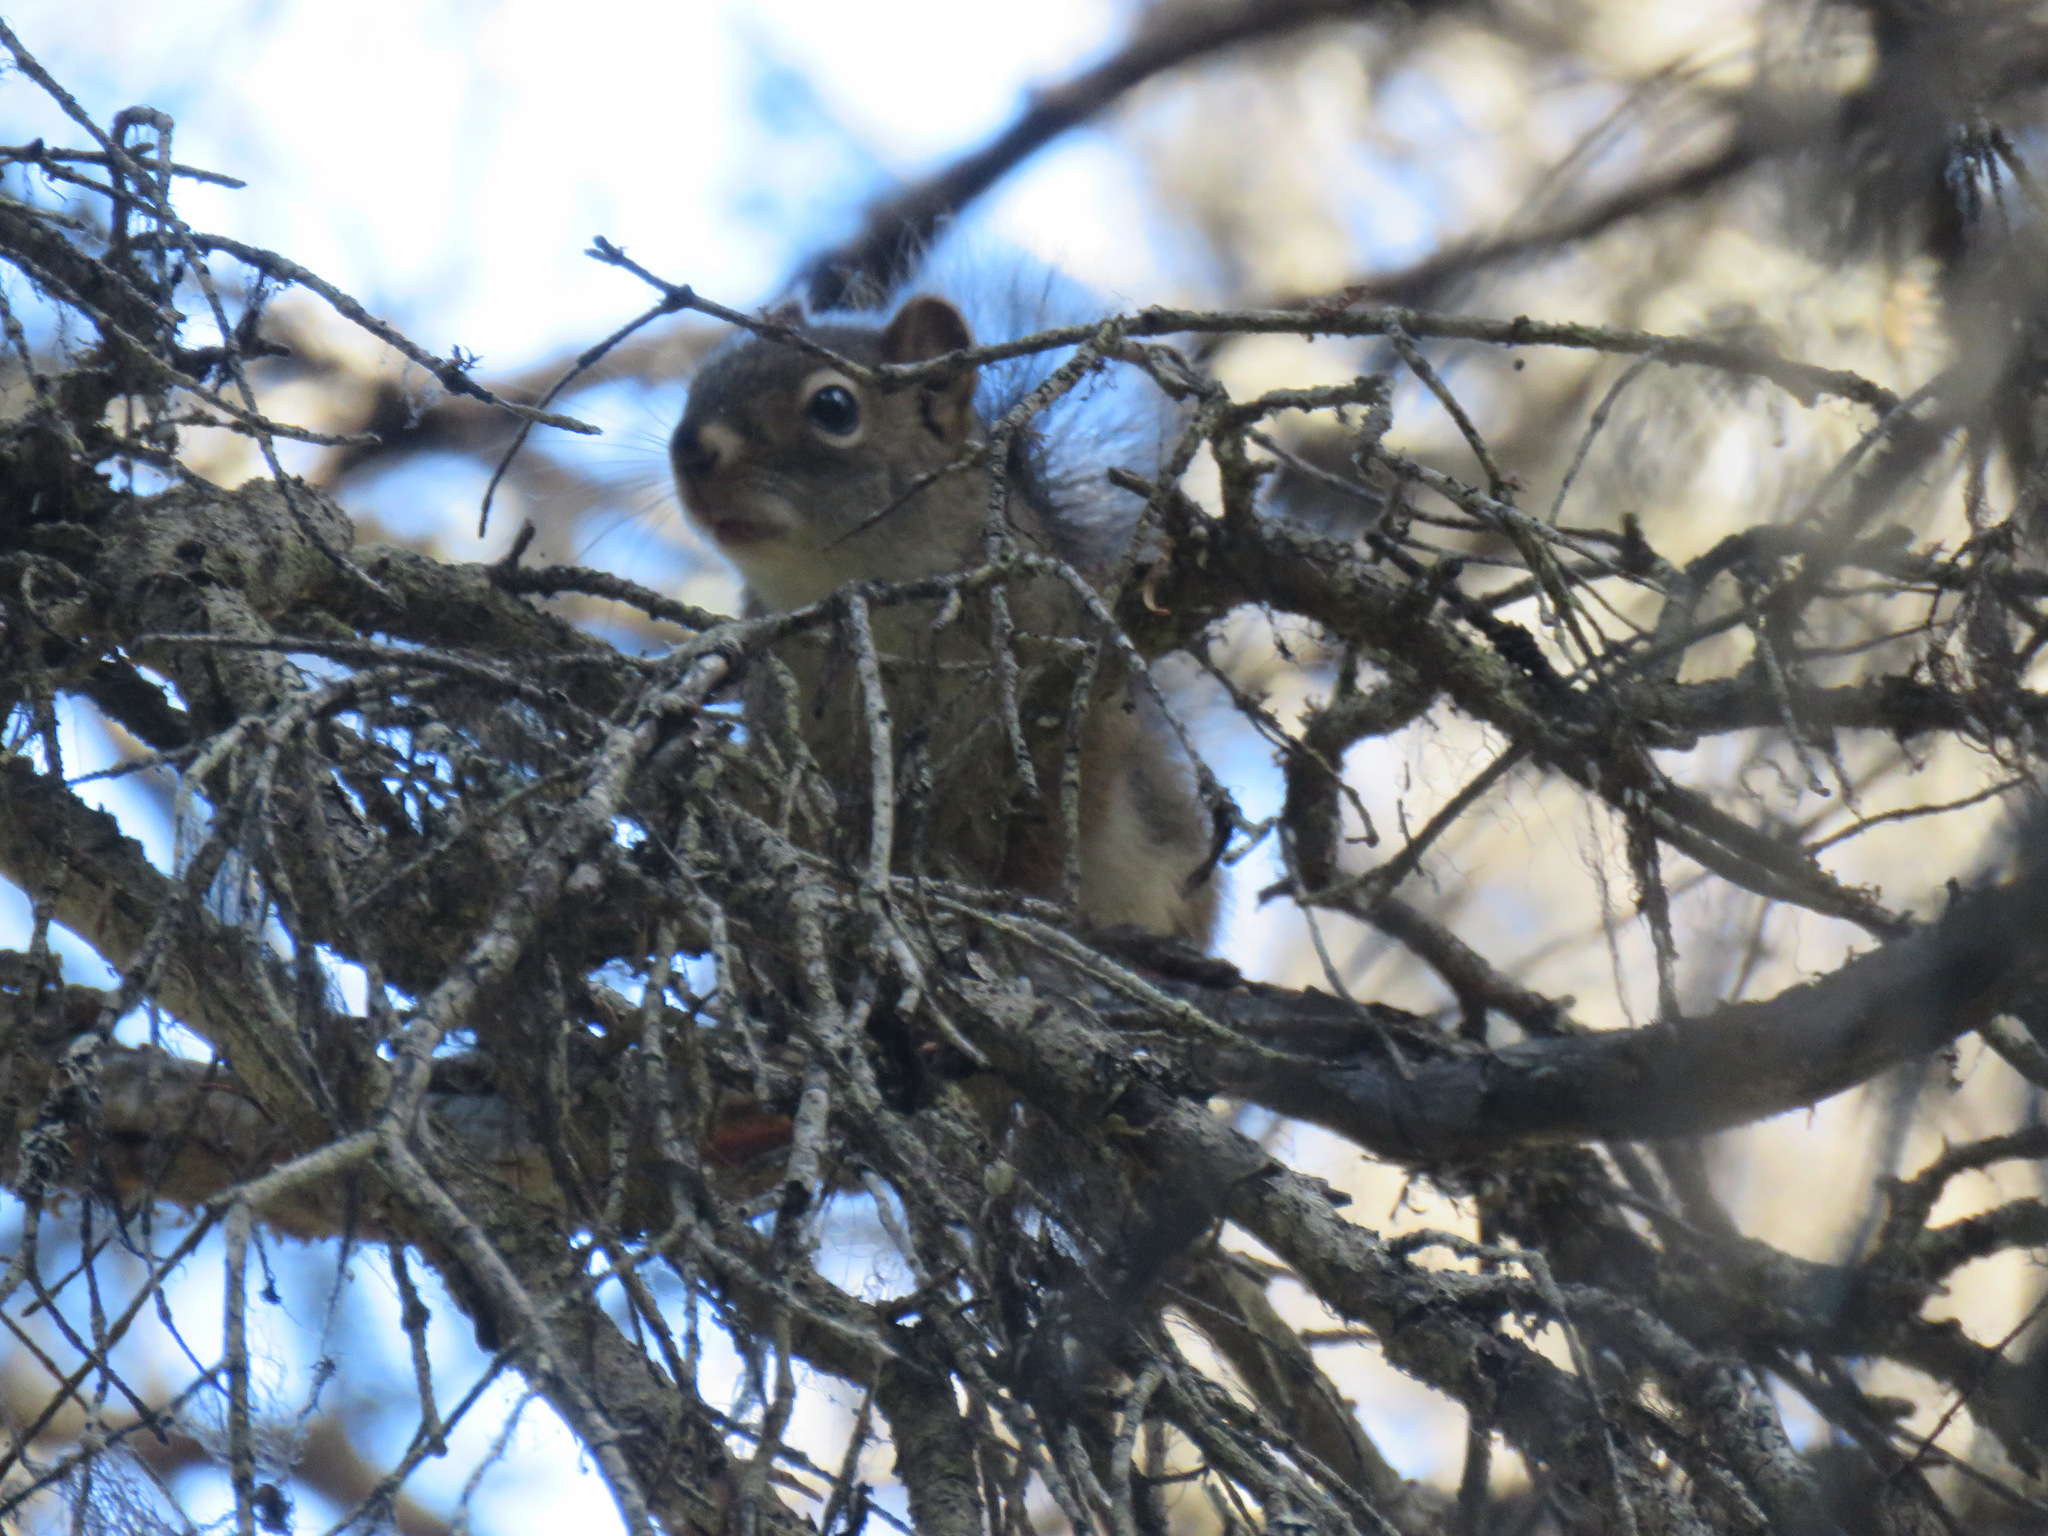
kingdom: Animalia
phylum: Chordata
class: Mammalia
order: Rodentia
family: Sciuridae
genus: Tamiasciurus
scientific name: Tamiasciurus hudsonicus
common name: Red squirrel
